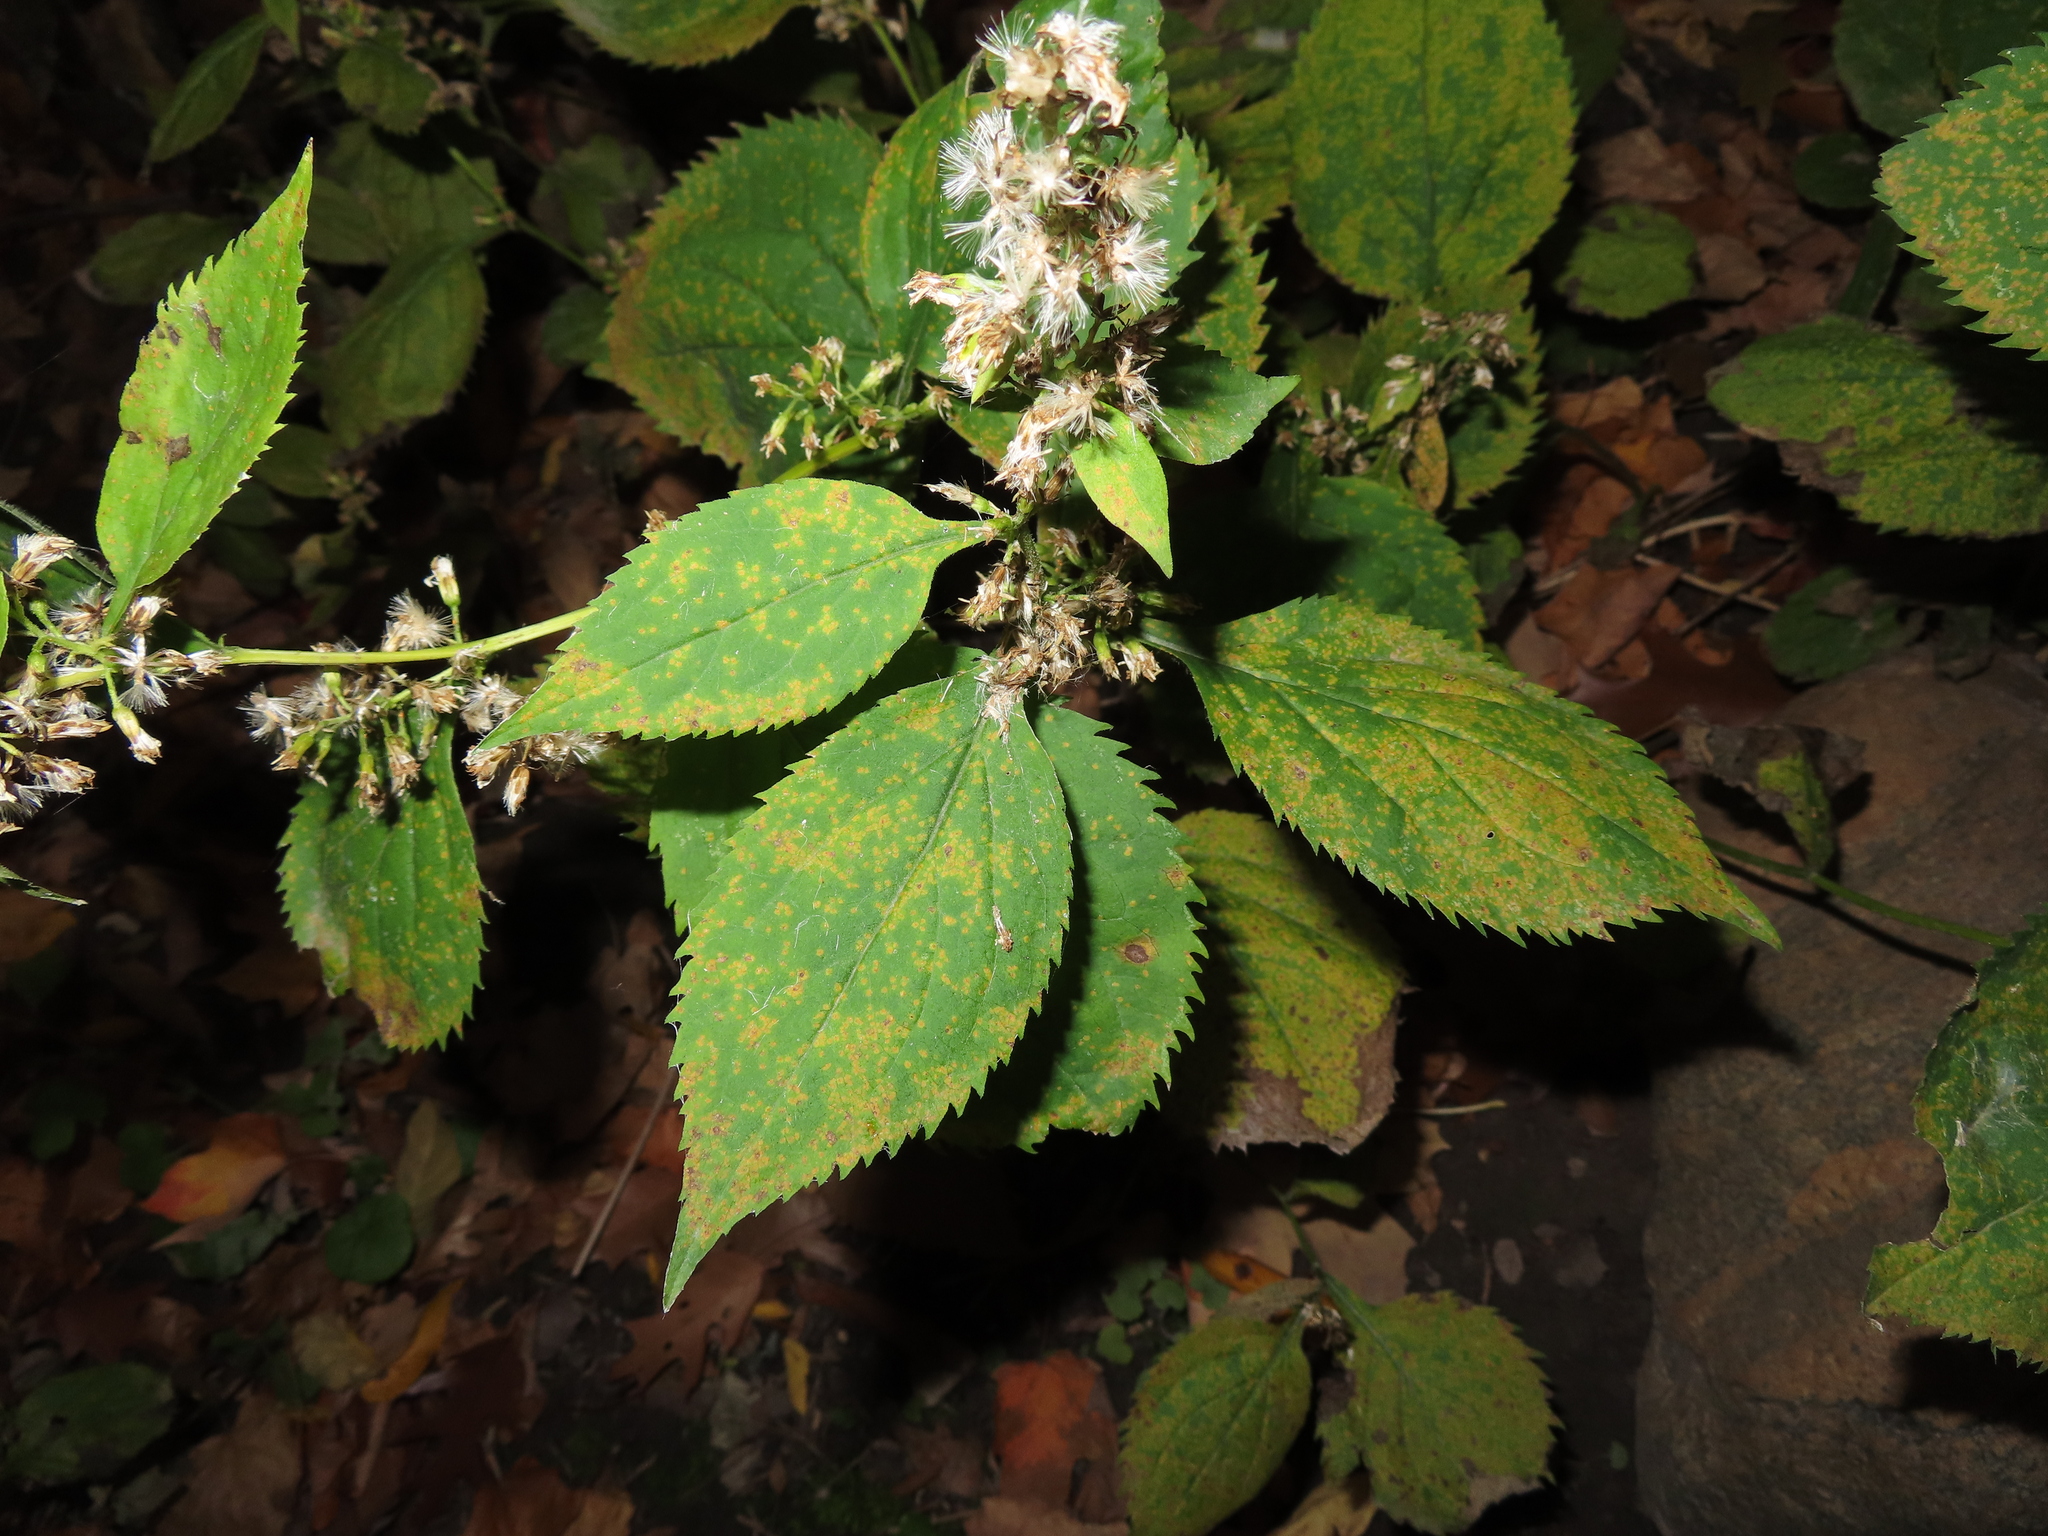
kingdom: Plantae
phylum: Tracheophyta
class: Magnoliopsida
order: Asterales
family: Asteraceae
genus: Solidago
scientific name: Solidago flexicaulis
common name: Zig-zag goldenrod
